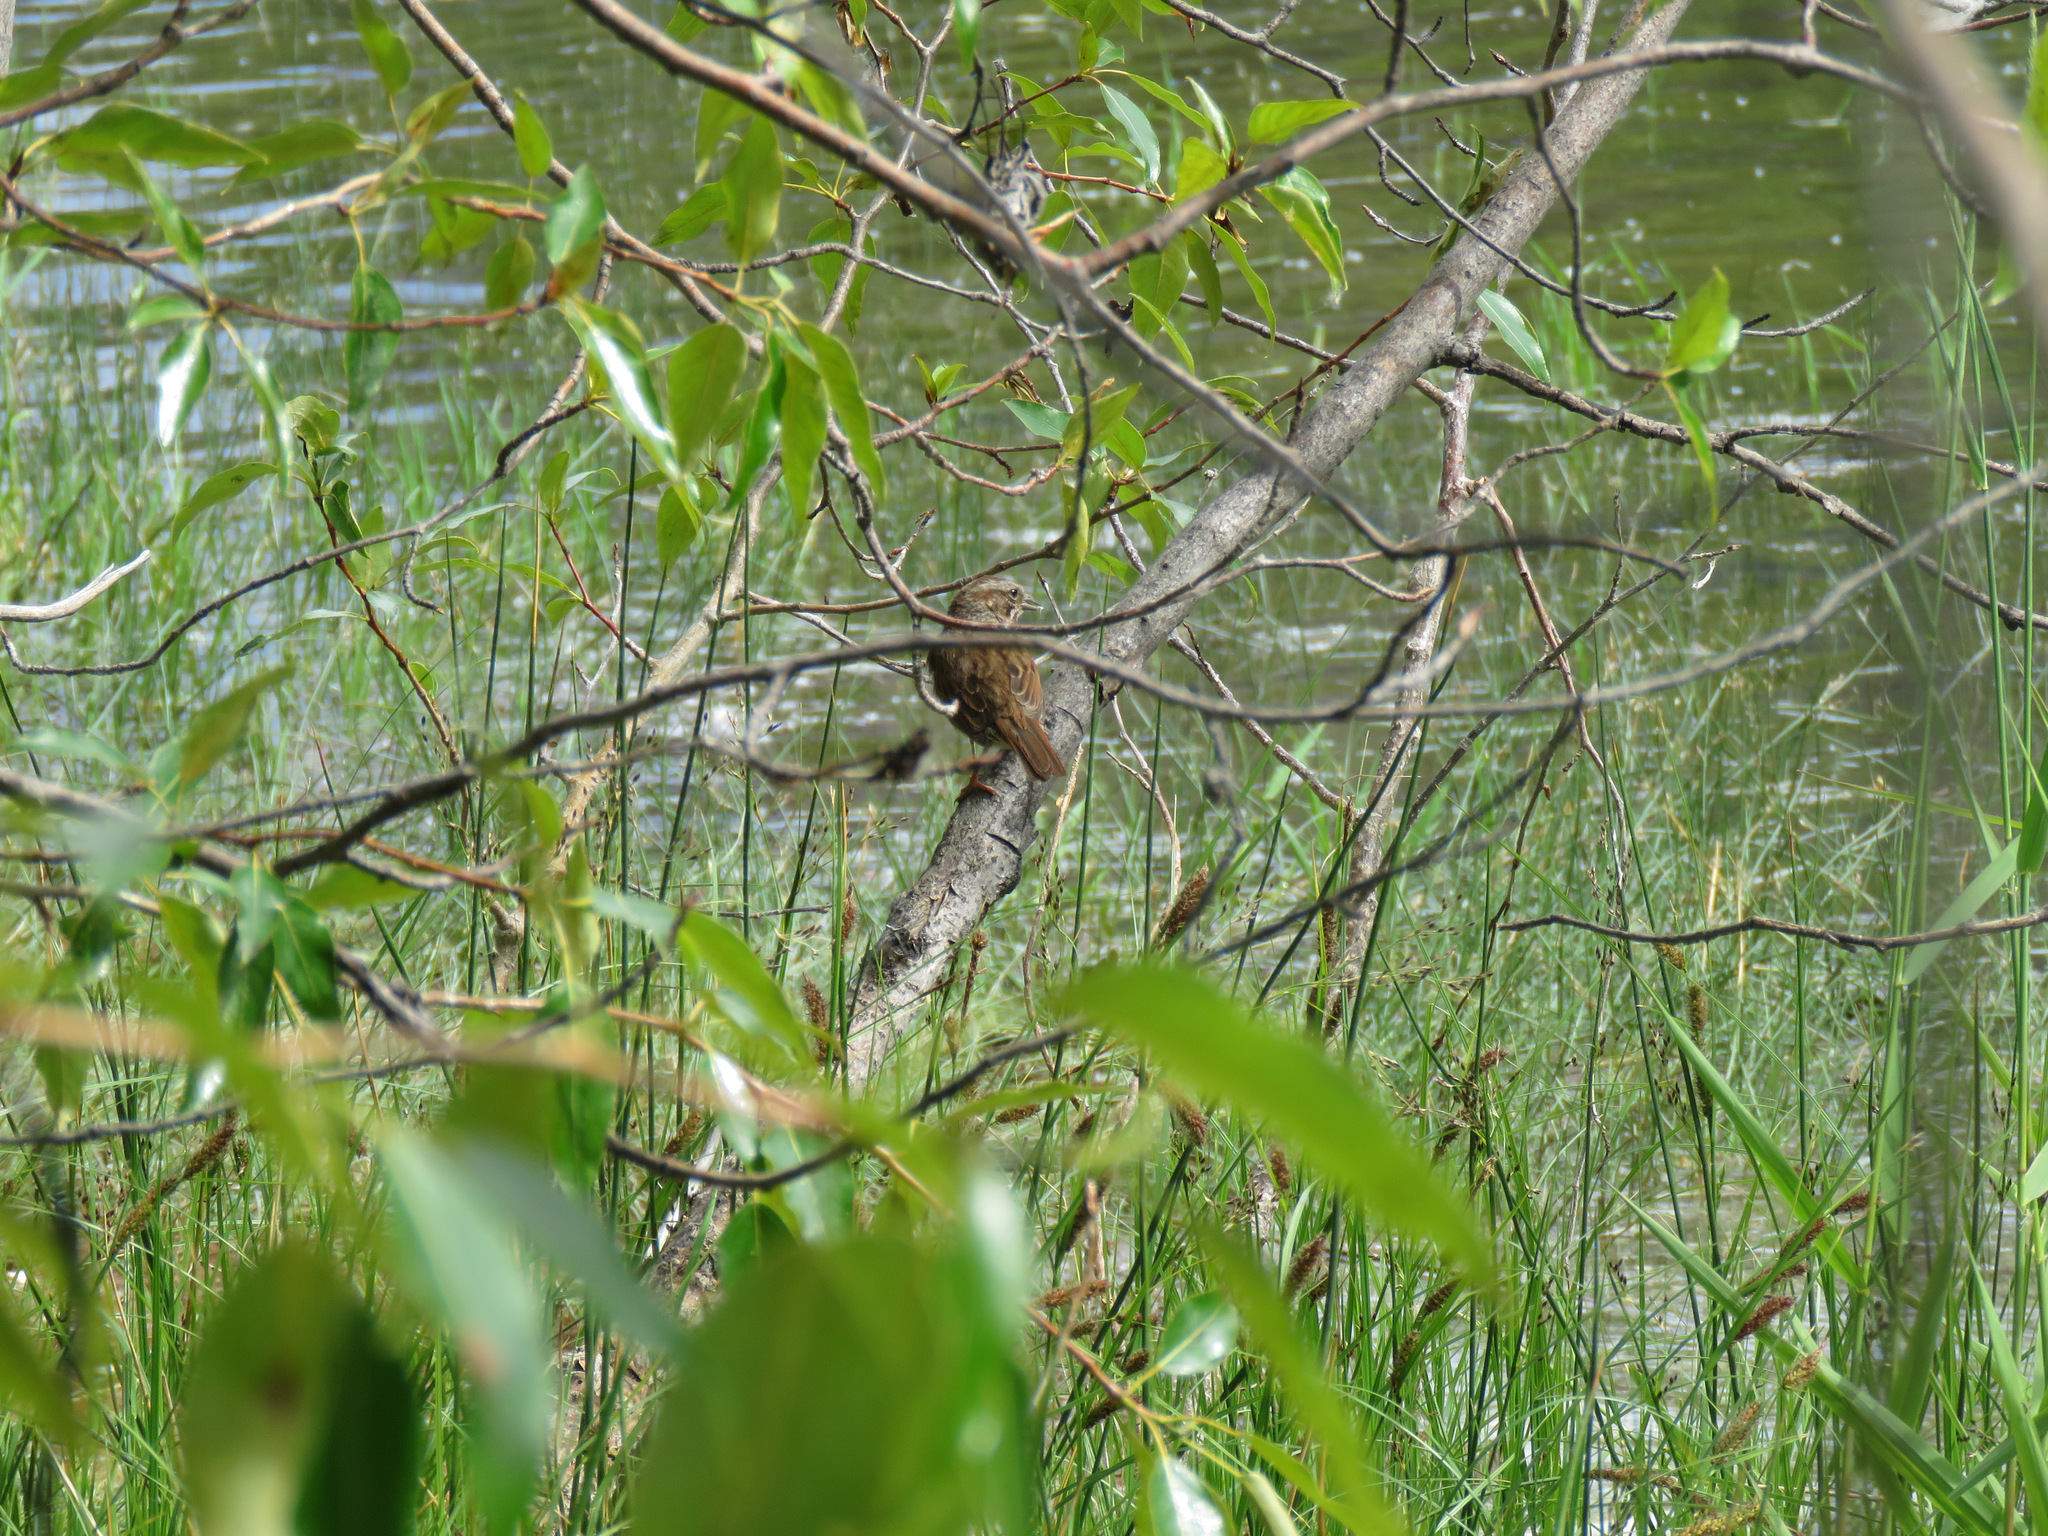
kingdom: Animalia
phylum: Chordata
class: Aves
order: Passeriformes
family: Passerellidae
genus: Melospiza
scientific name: Melospiza melodia
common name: Song sparrow
